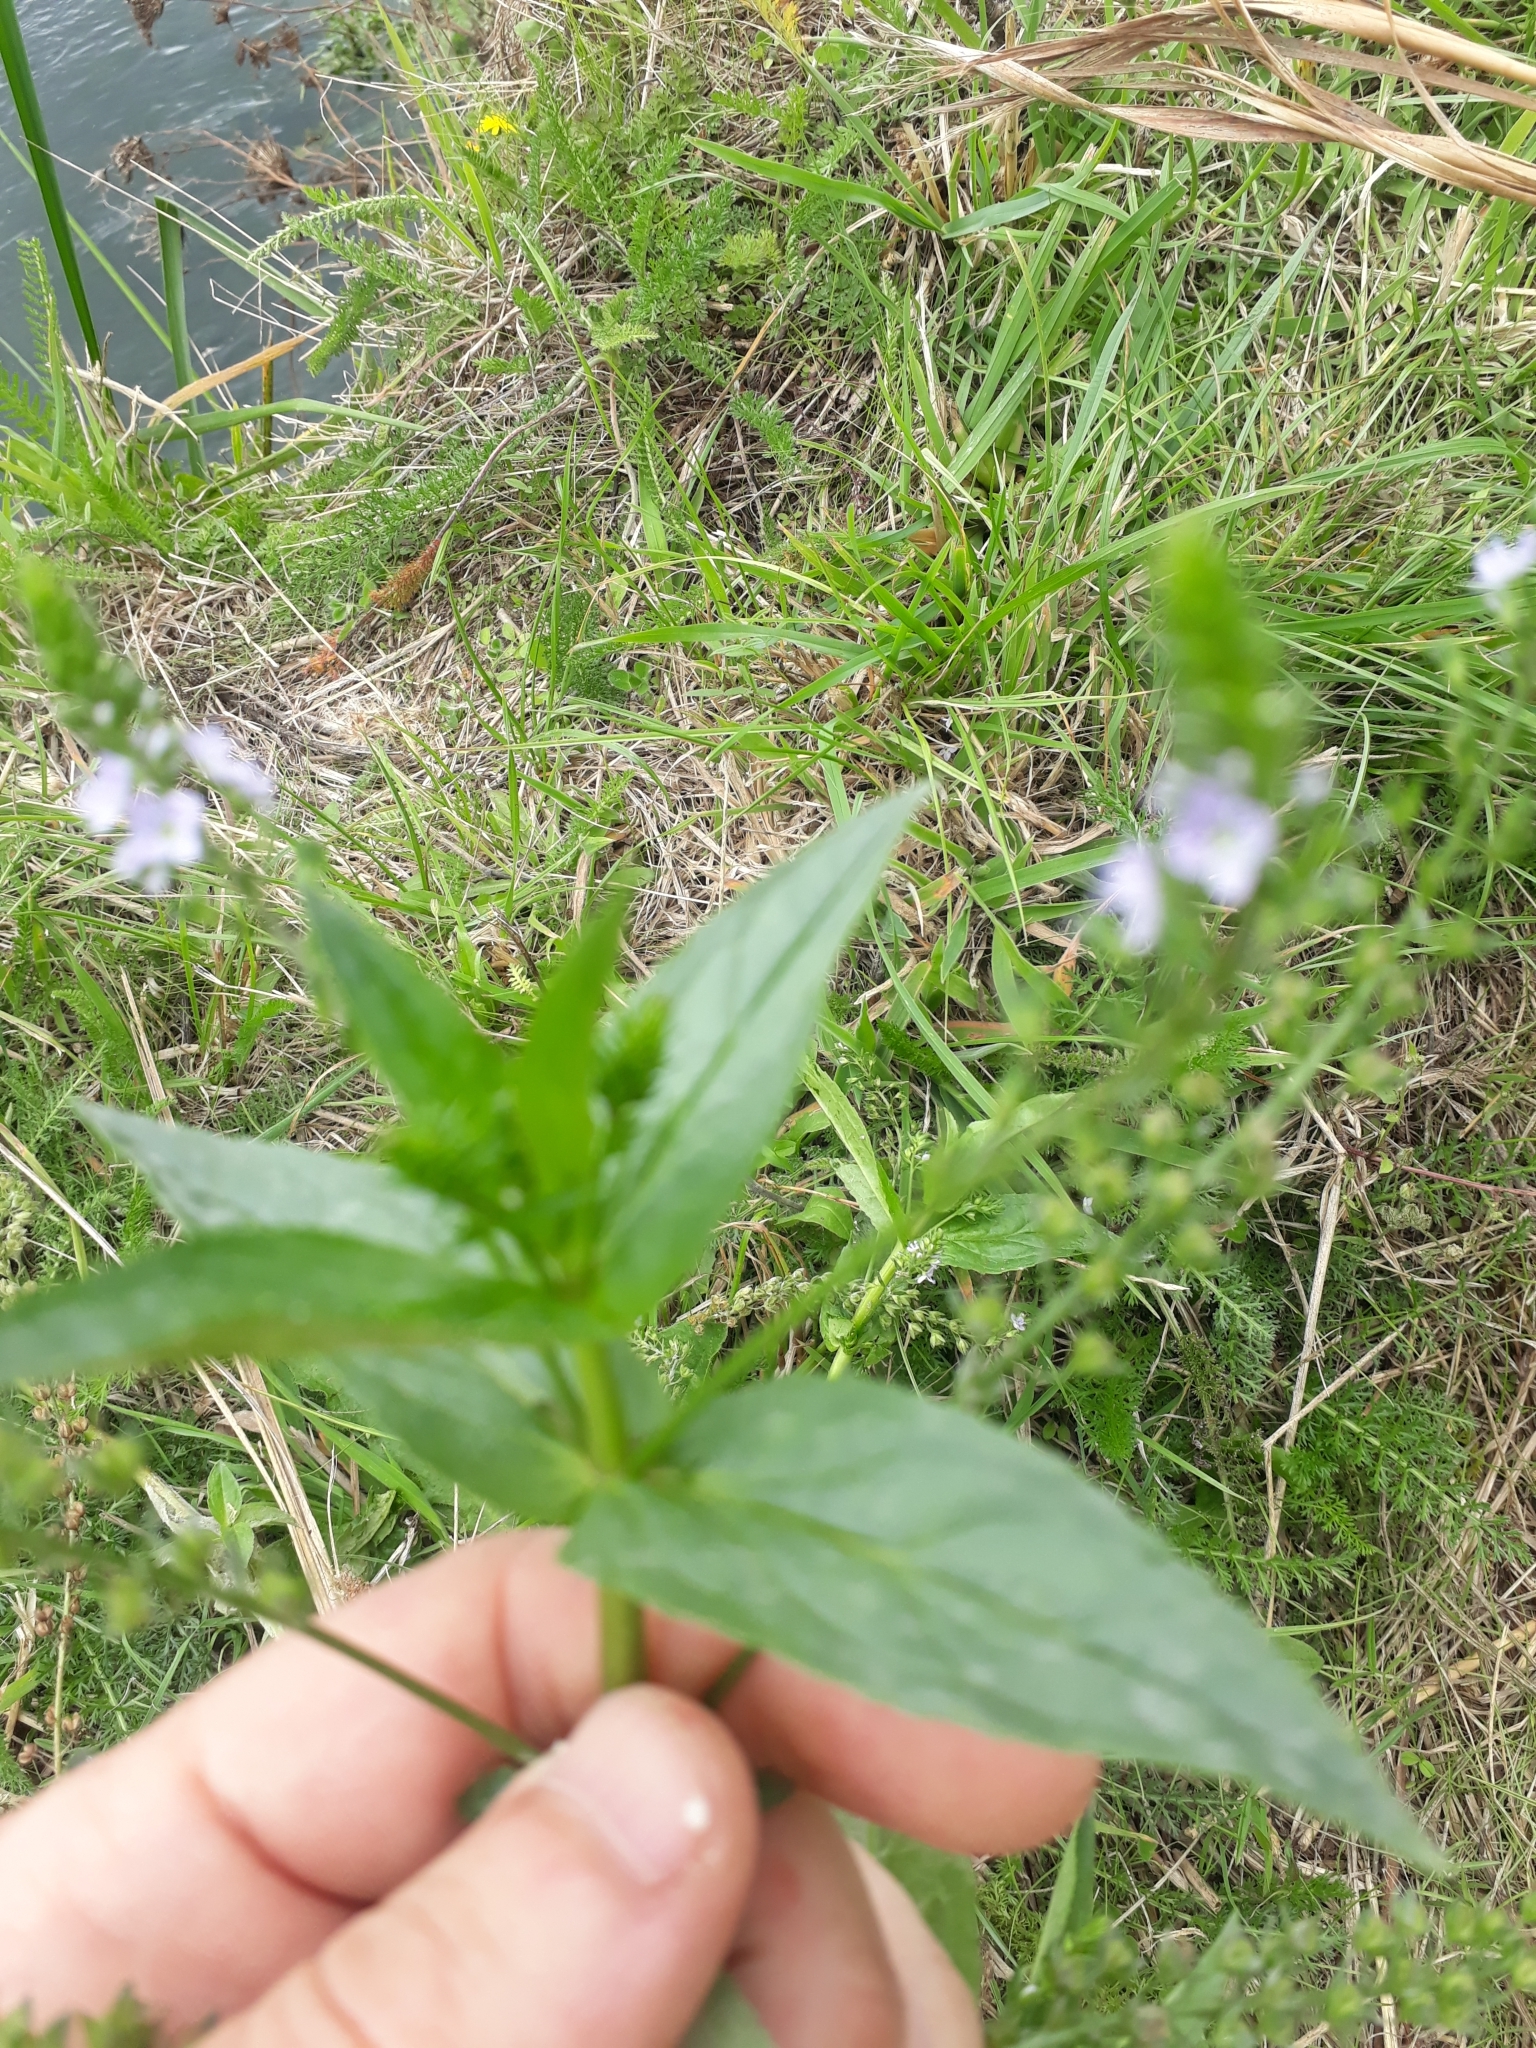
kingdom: Plantae
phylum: Tracheophyta
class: Magnoliopsida
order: Lamiales
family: Plantaginaceae
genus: Veronica
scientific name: Veronica anagallis-aquatica
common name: Water speedwell
